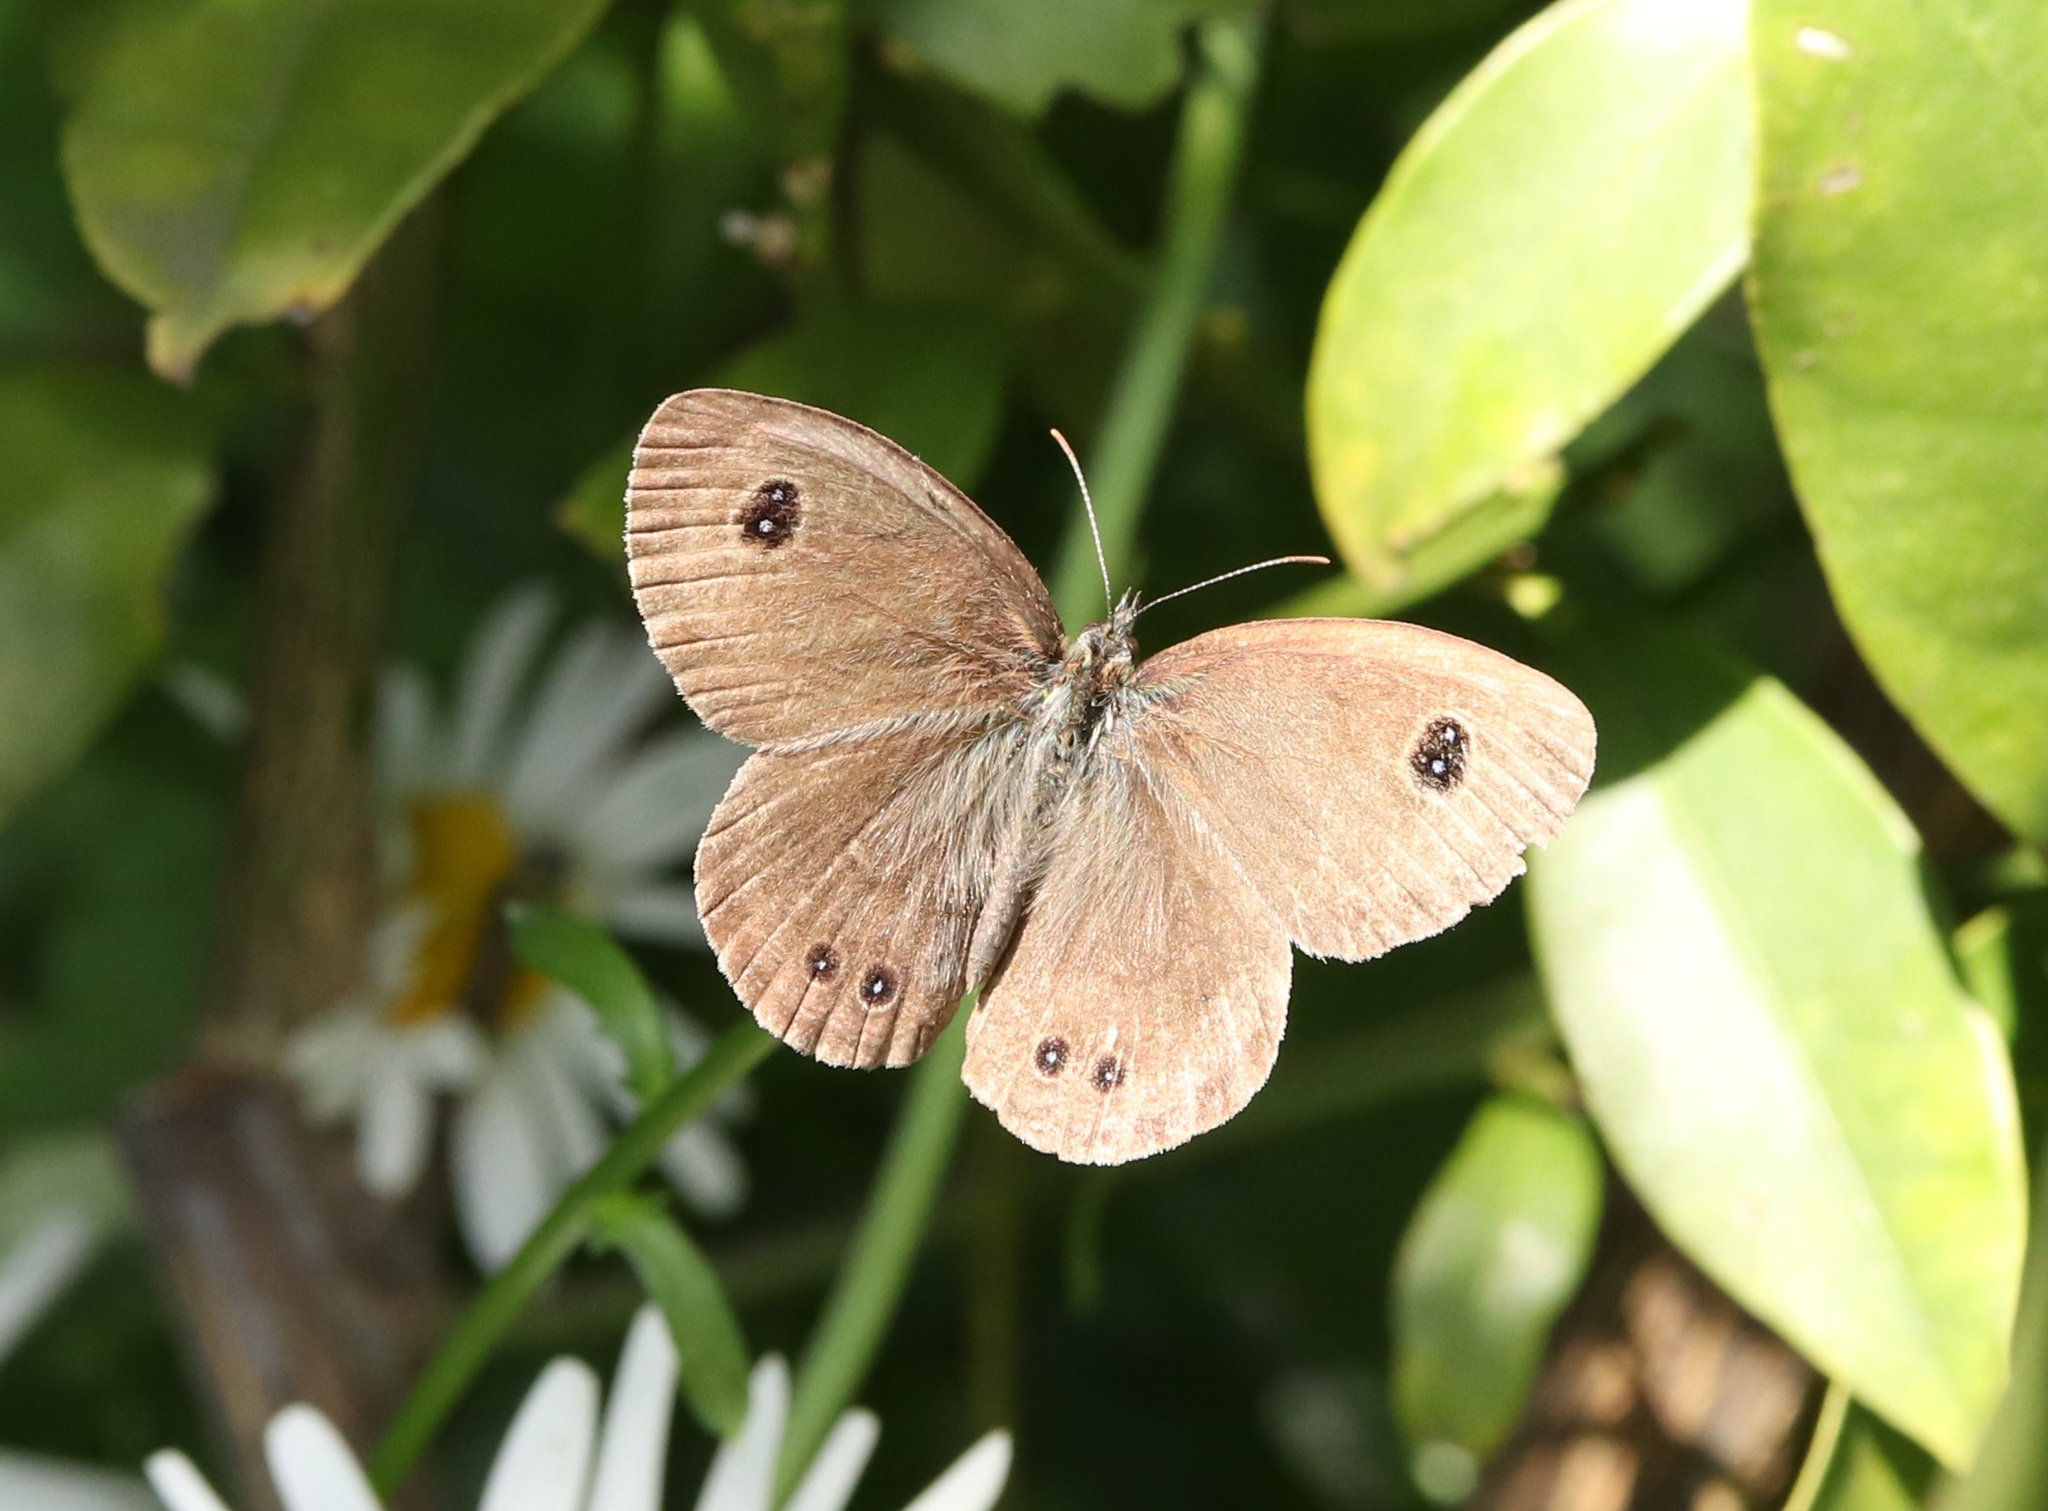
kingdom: Animalia
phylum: Arthropoda
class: Insecta
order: Lepidoptera
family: Nymphalidae
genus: Ypthima
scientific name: Ypthima argus
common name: Common fivering
